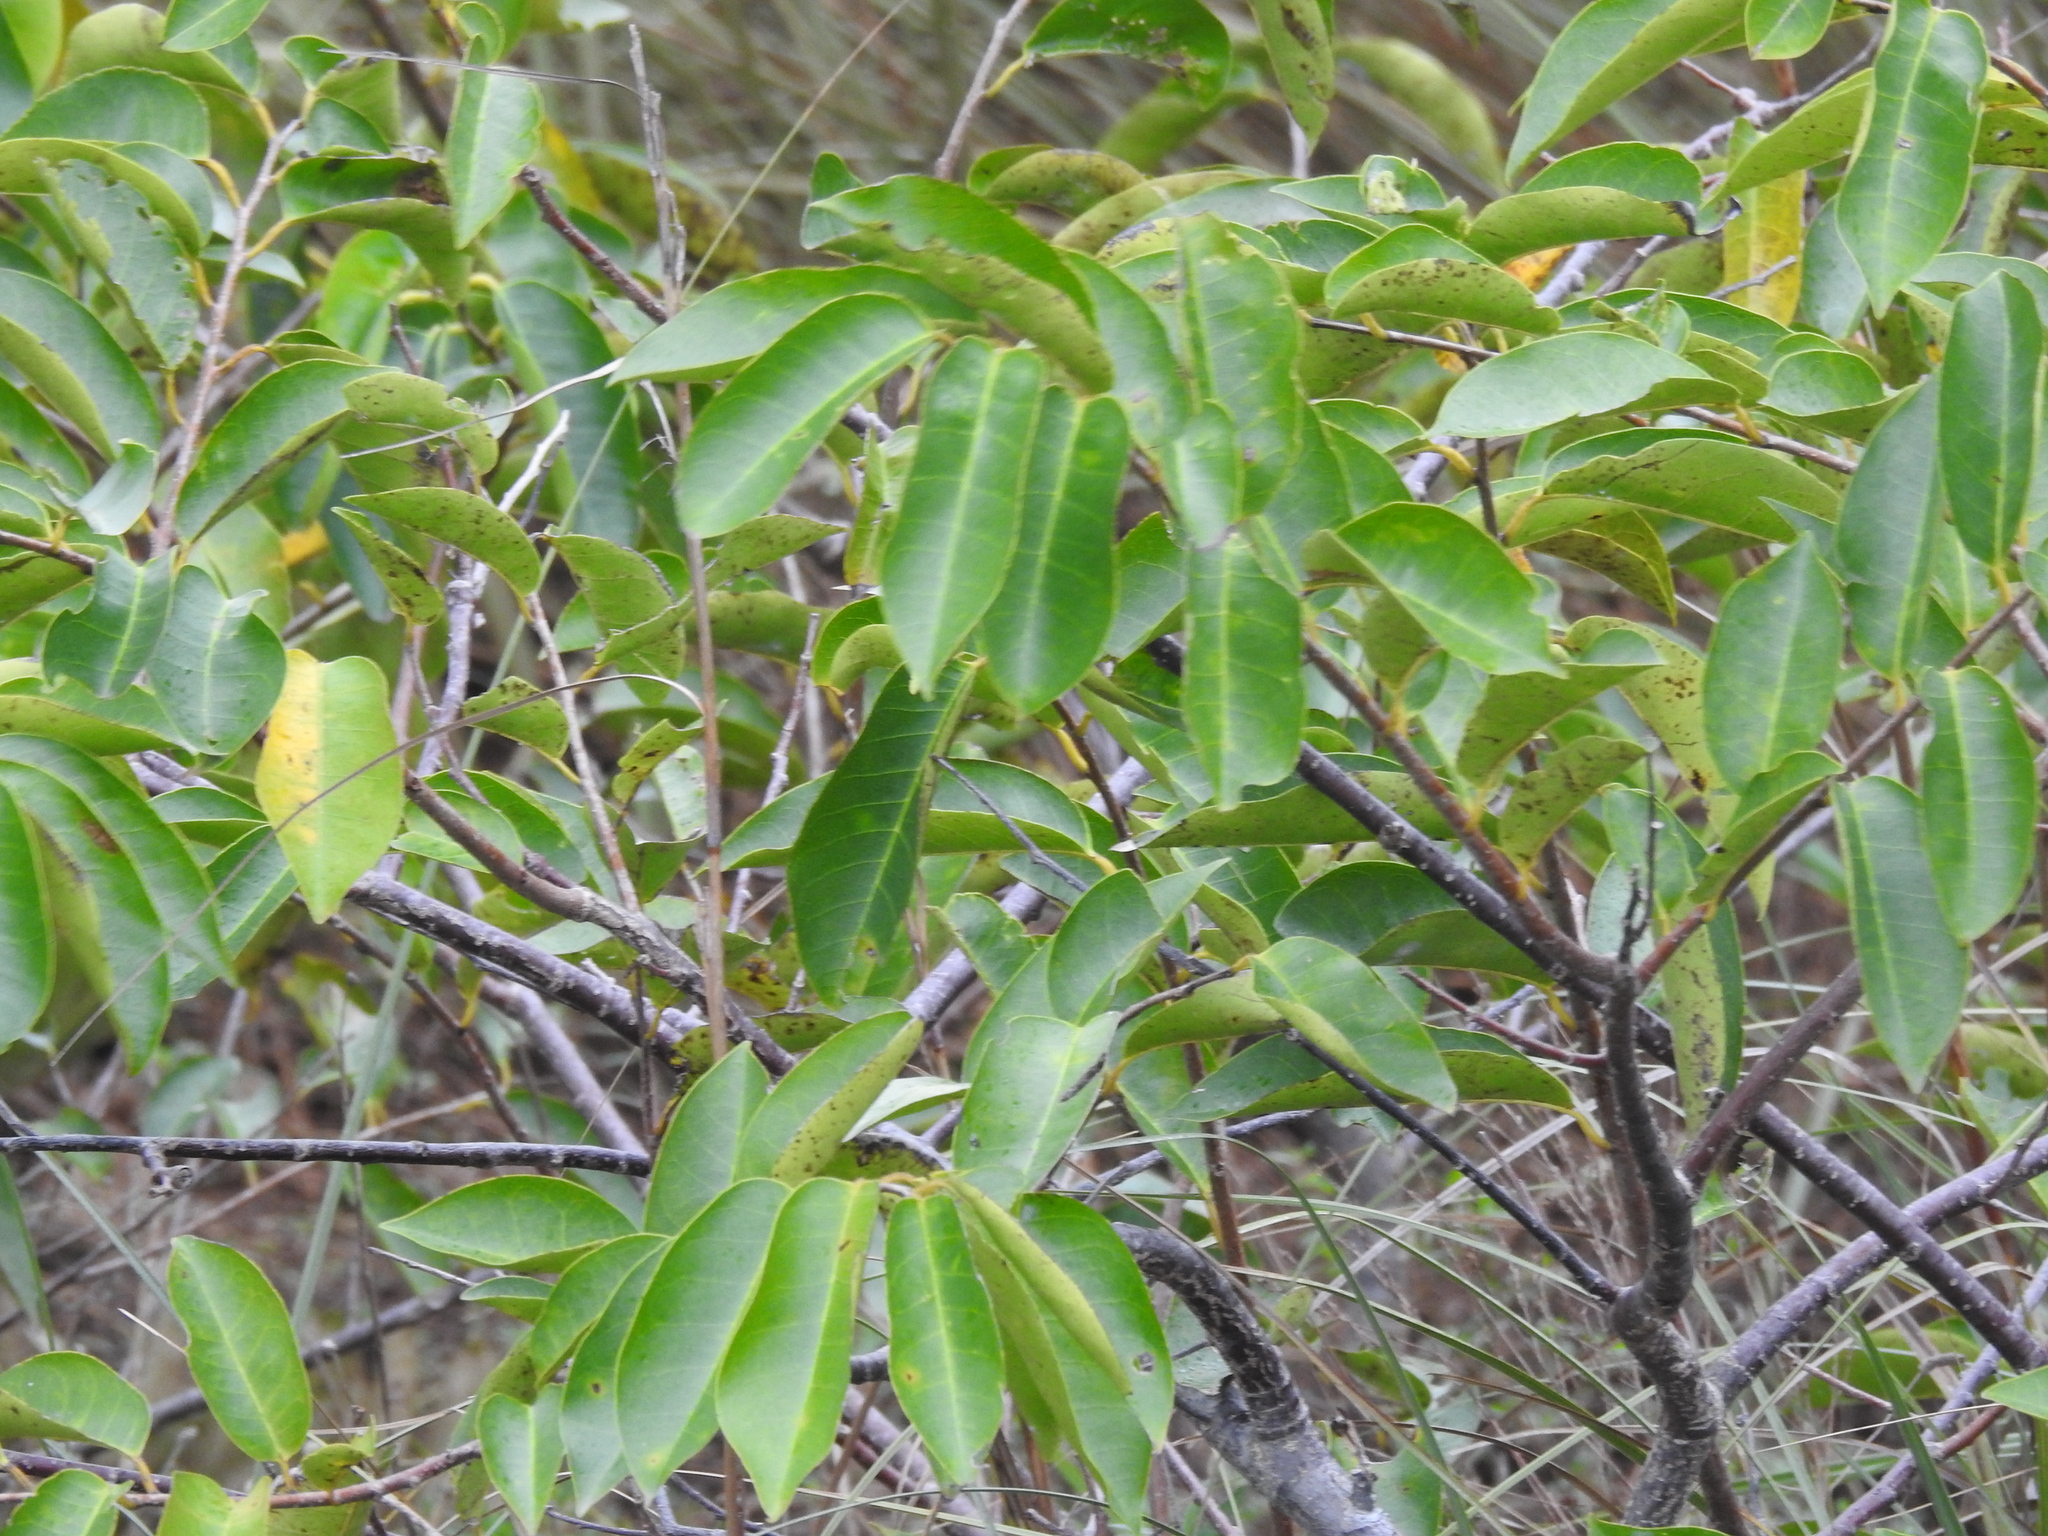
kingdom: Plantae
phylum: Tracheophyta
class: Magnoliopsida
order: Magnoliales
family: Annonaceae
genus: Annona
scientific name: Annona glabra
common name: Monkey apple
